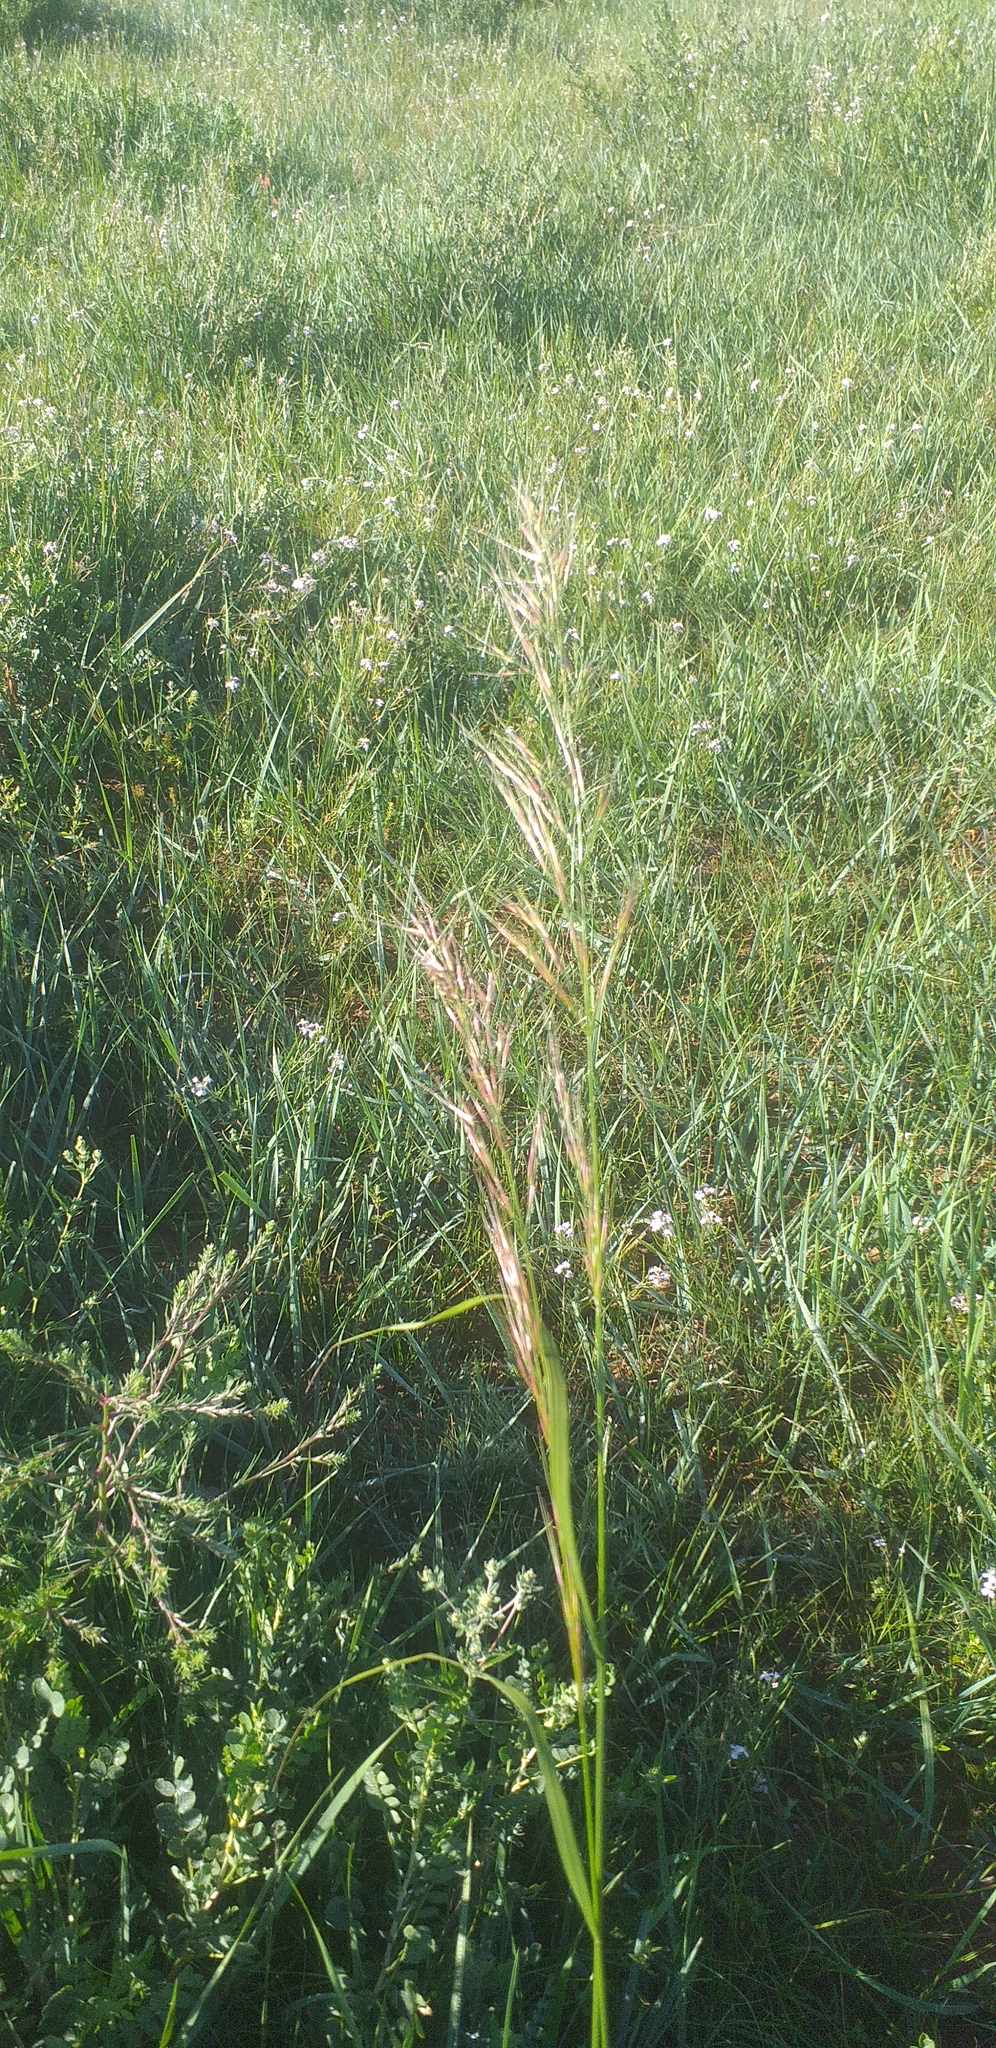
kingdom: Plantae
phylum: Tracheophyta
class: Liliopsida
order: Poales
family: Poaceae
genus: Achnatherum
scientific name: Achnatherum sibiricum
